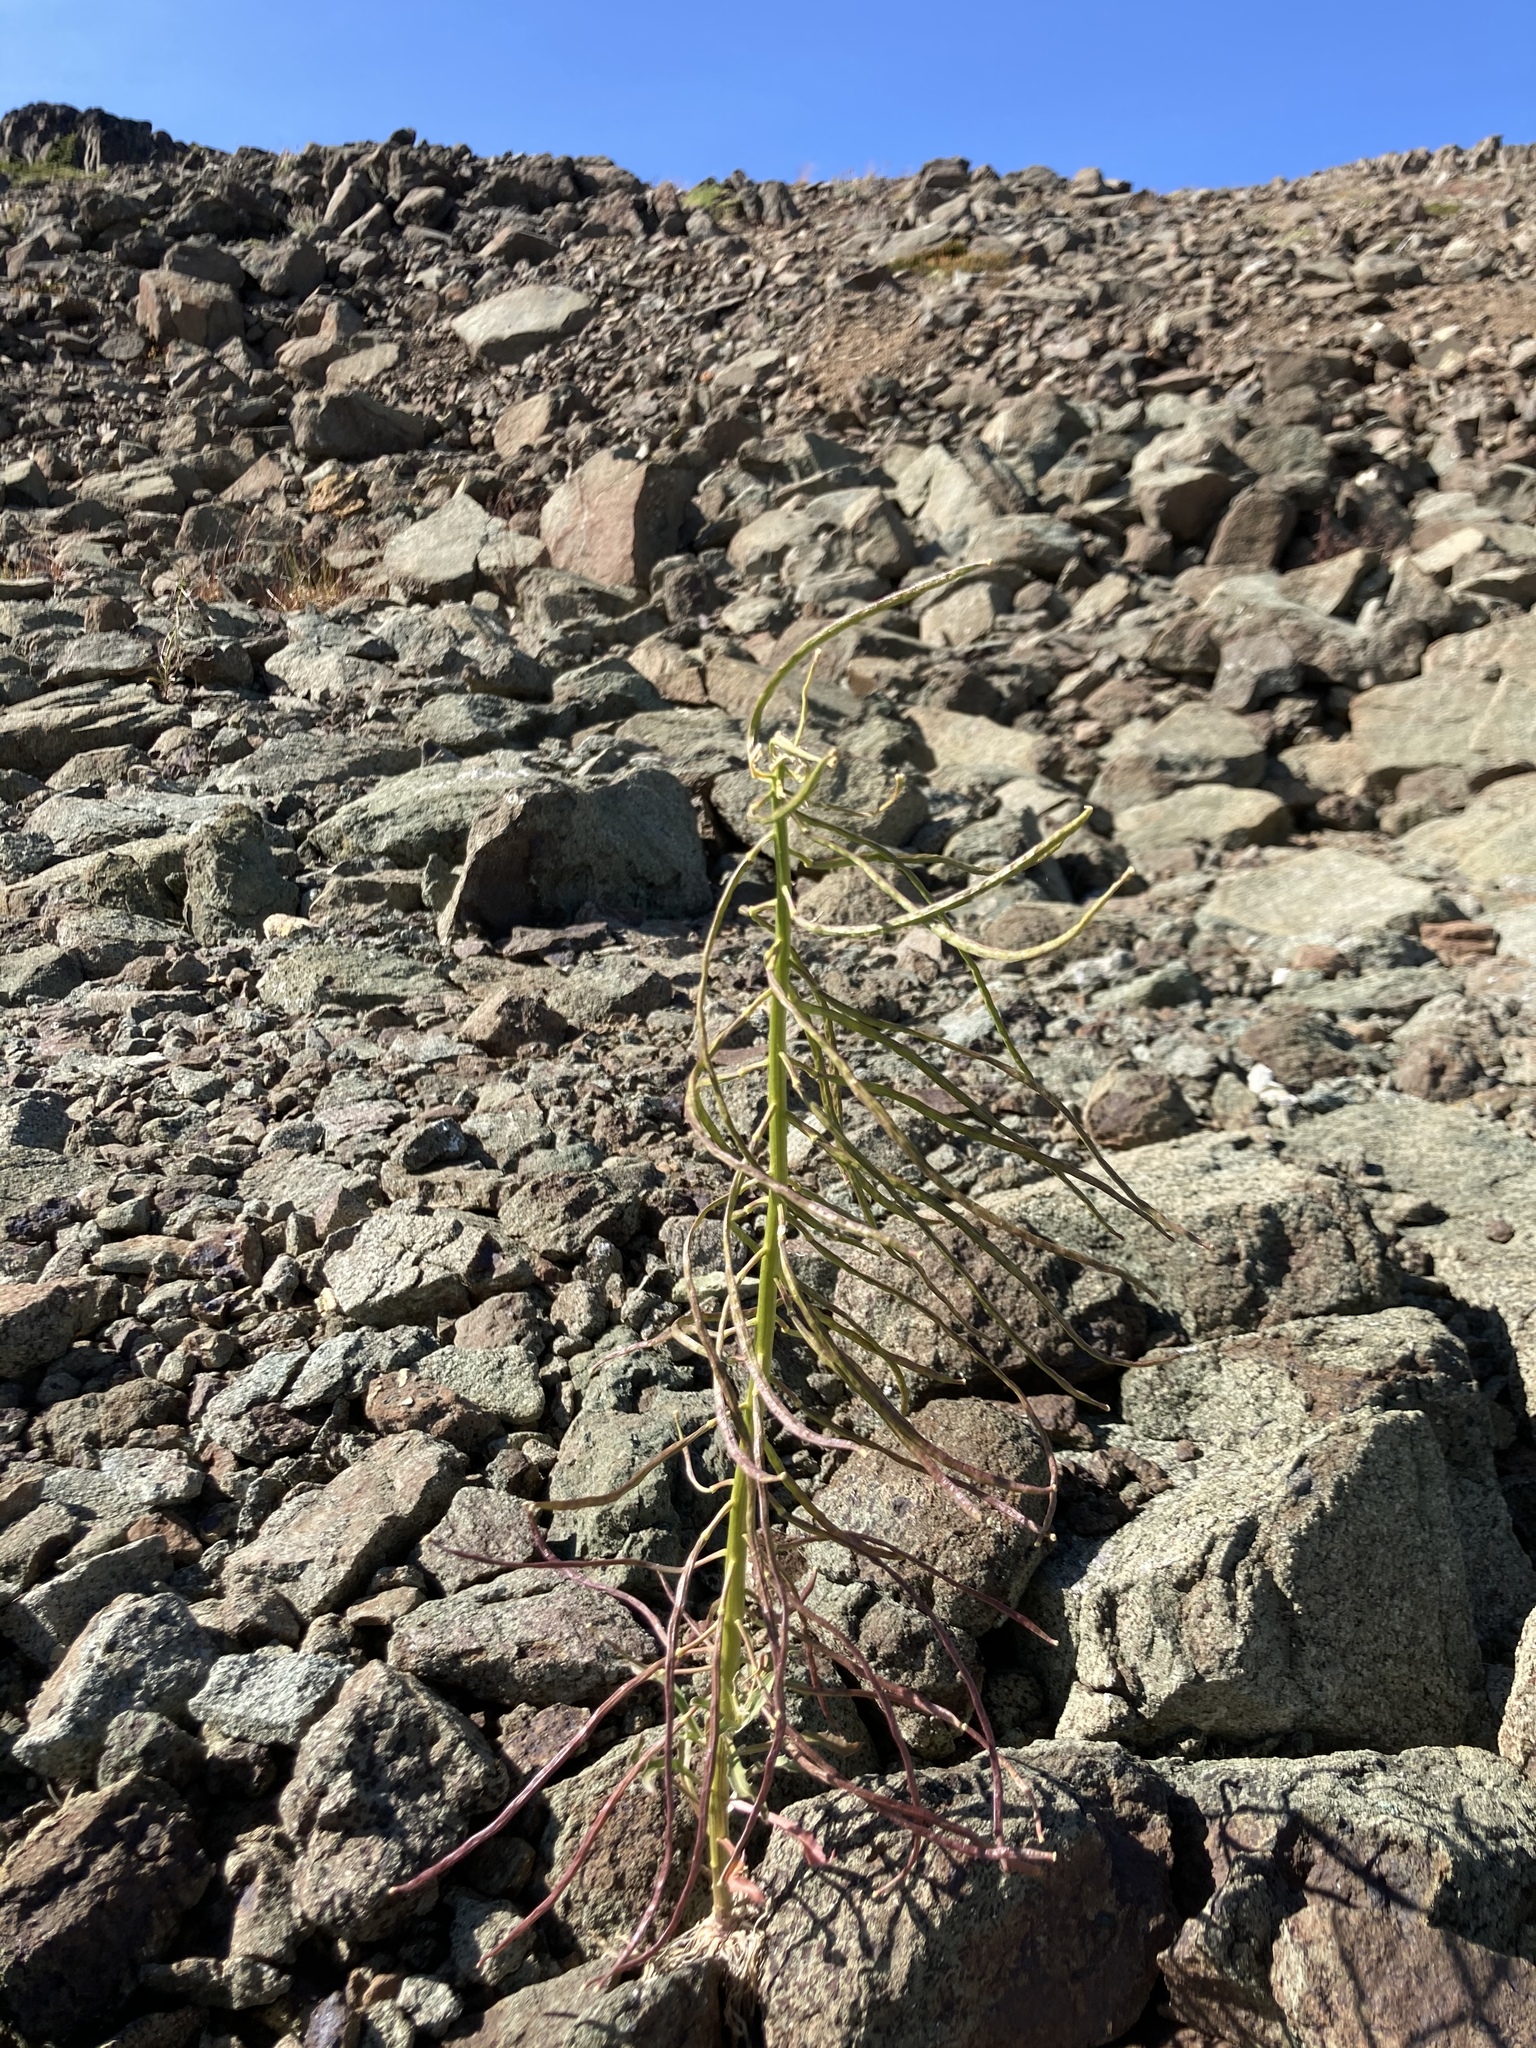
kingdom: Plantae
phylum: Tracheophyta
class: Magnoliopsida
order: Brassicales
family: Brassicaceae
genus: Erysimum
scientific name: Erysimum arenicola
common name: Cascade wallflower
